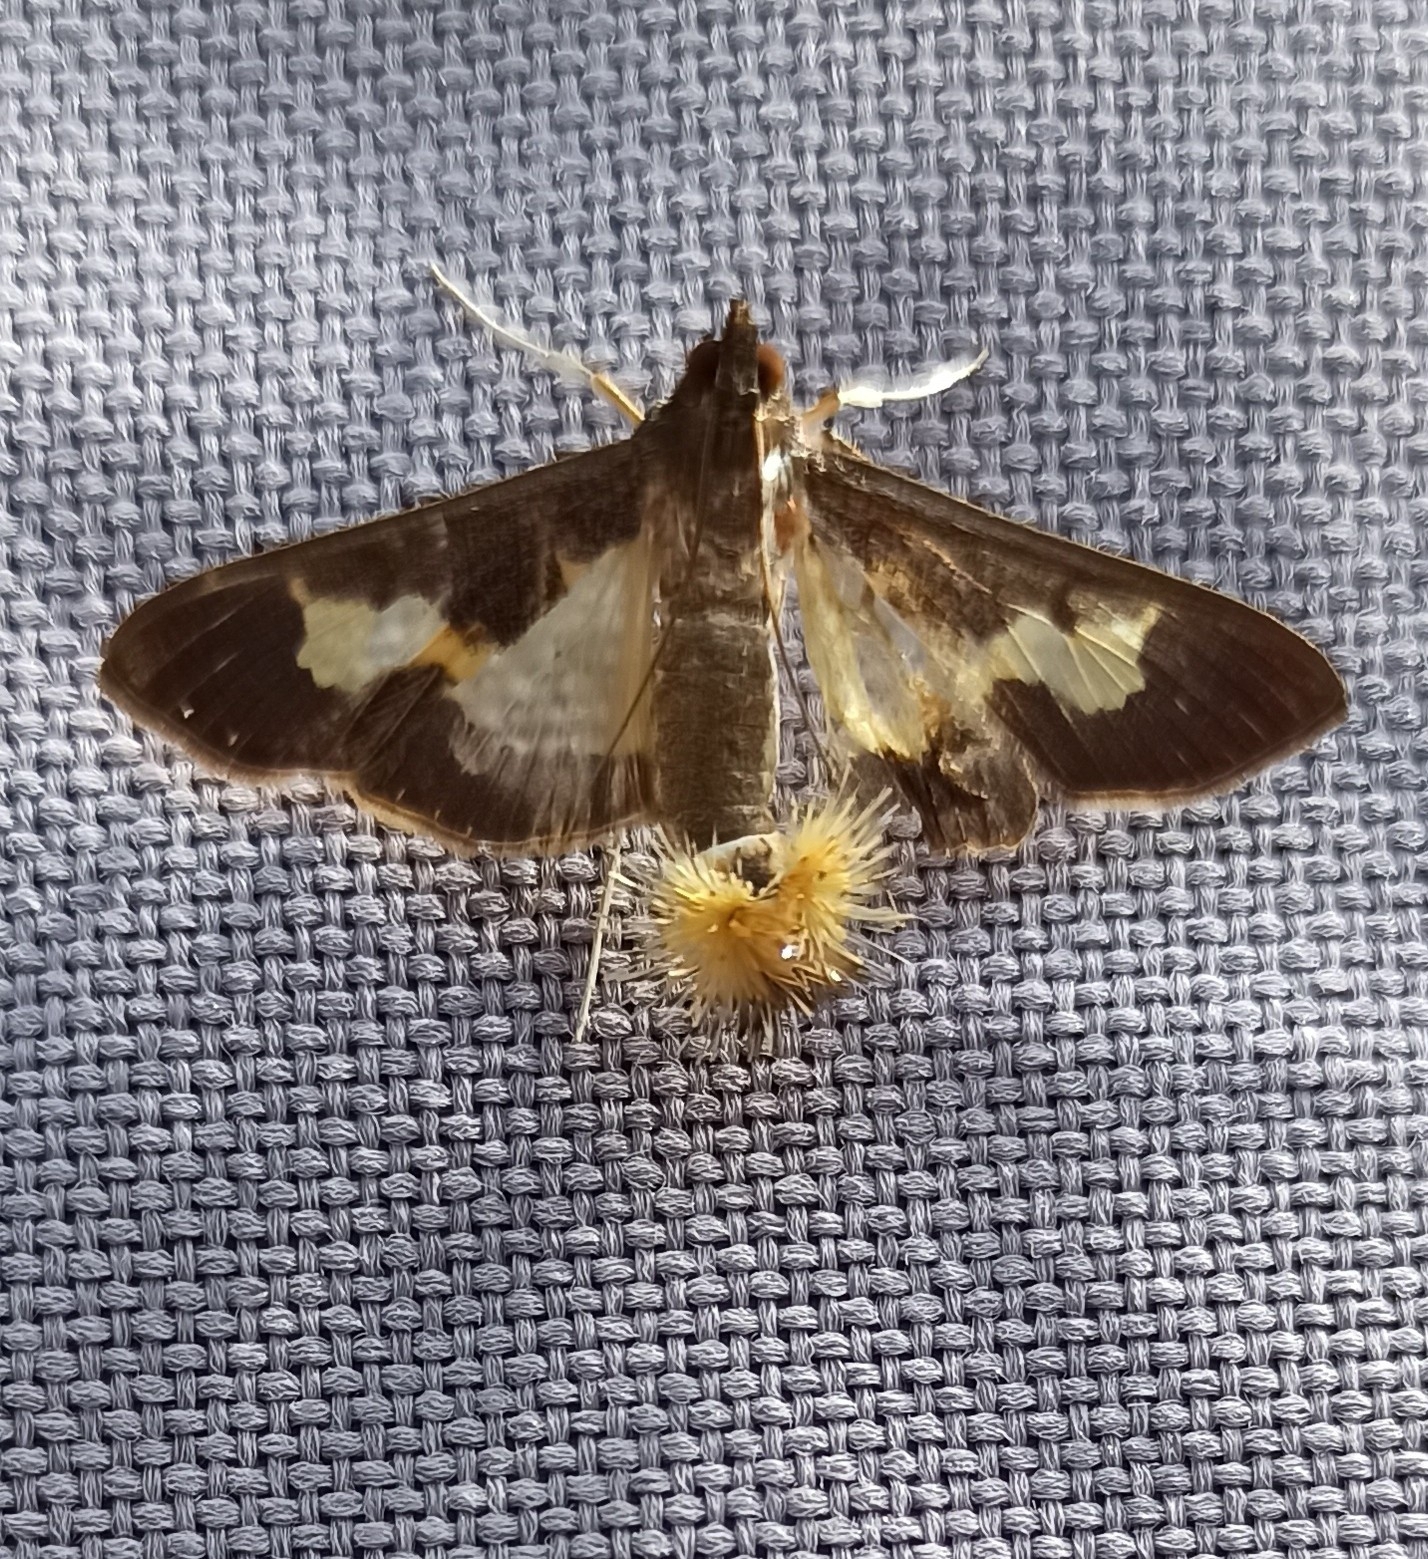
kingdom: Animalia
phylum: Arthropoda
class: Insecta
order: Lepidoptera
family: Crambidae
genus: Cryptographis
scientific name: Cryptographis nitidalis
